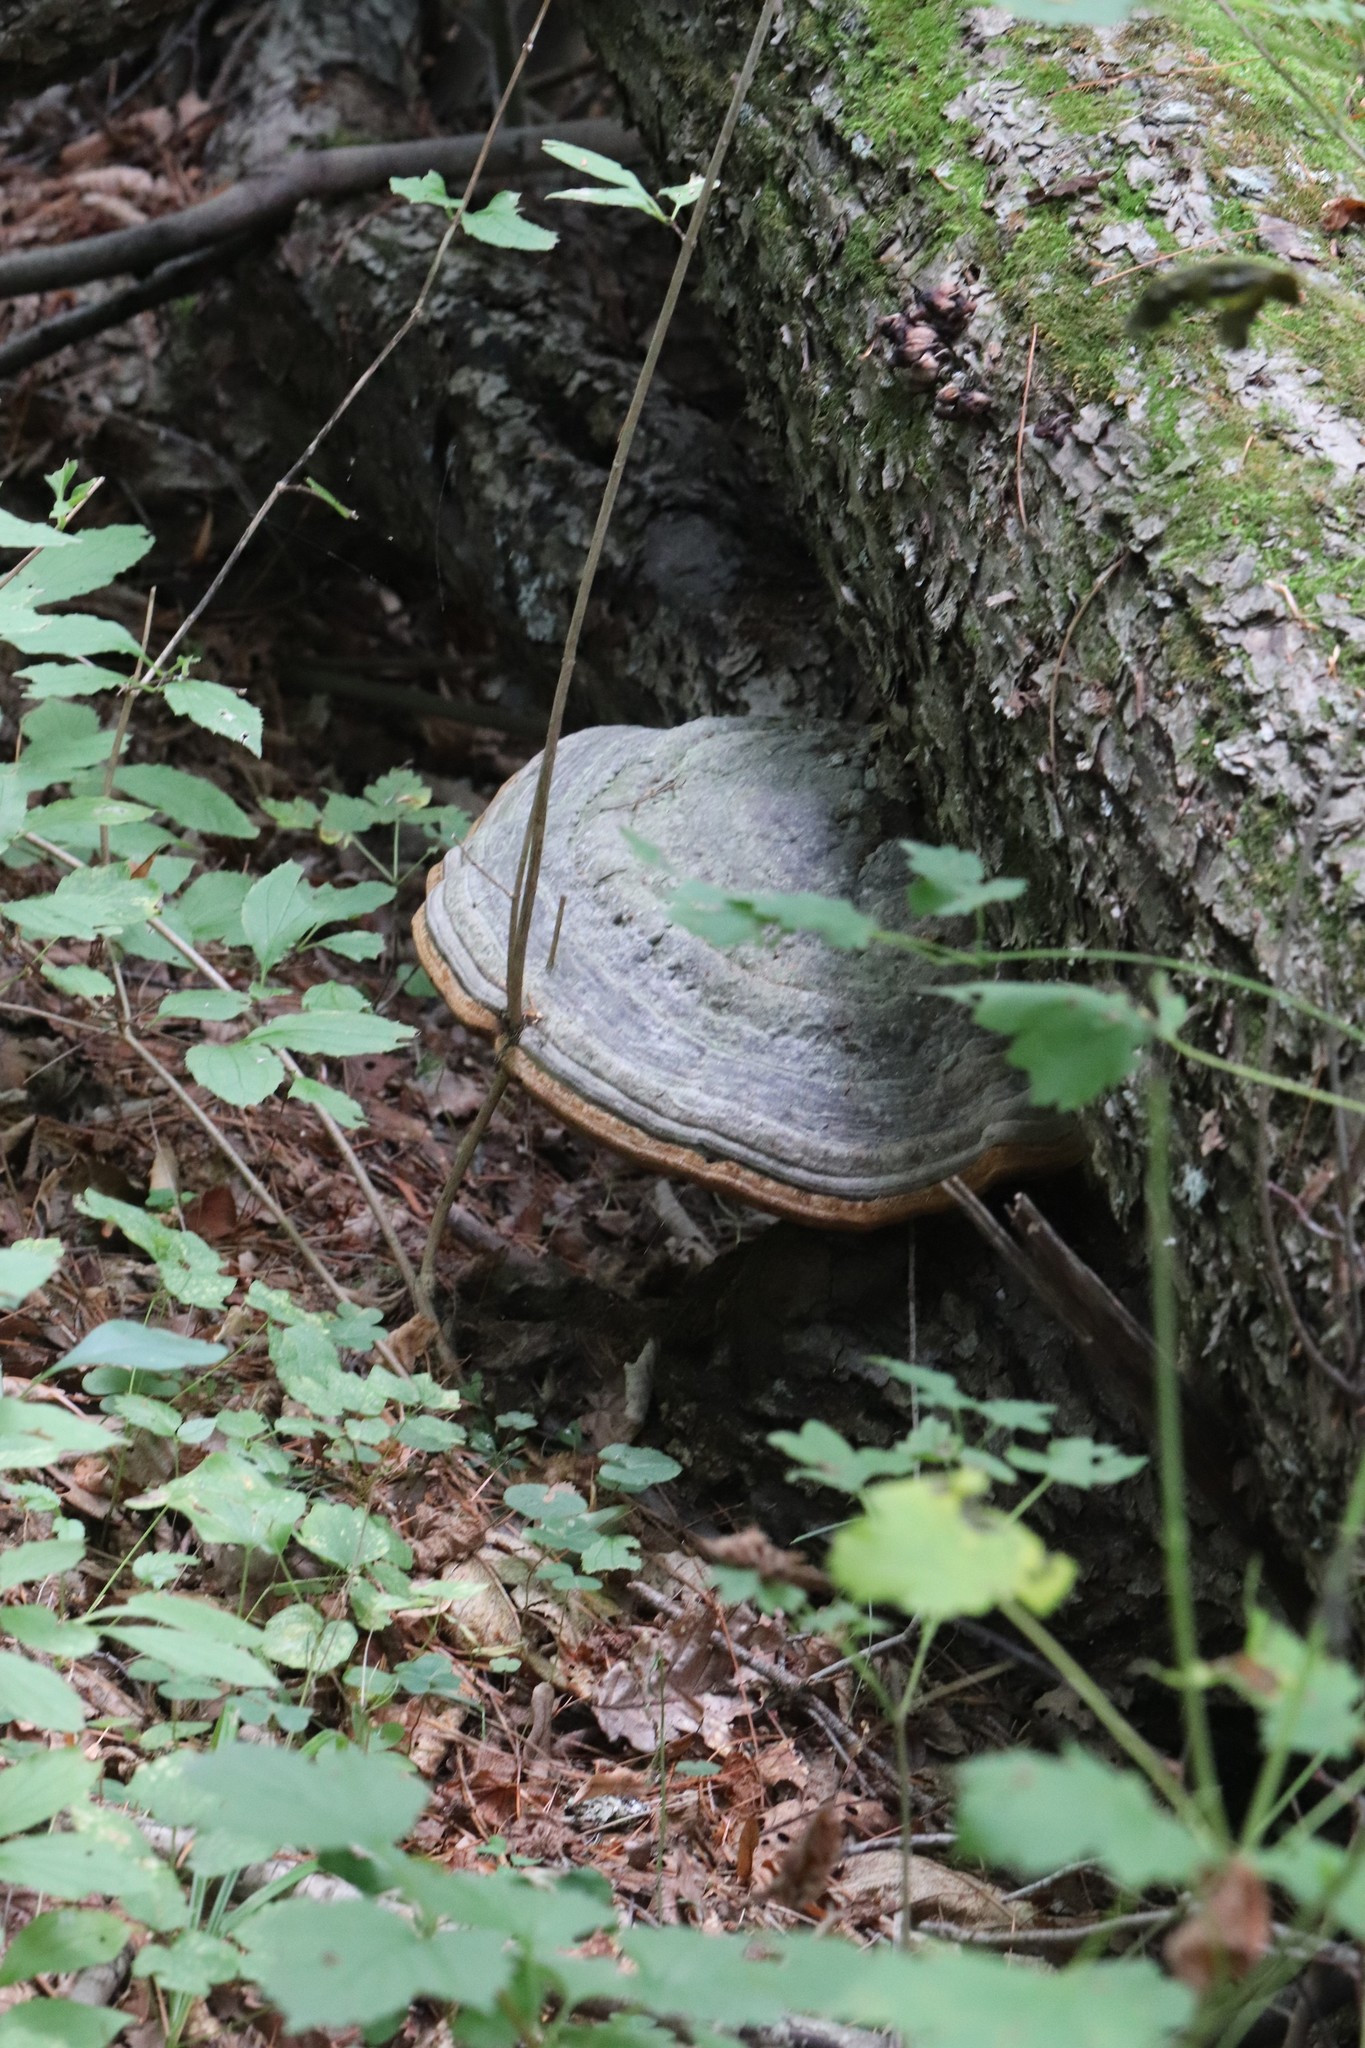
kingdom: Fungi
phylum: Basidiomycota
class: Agaricomycetes
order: Polyporales
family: Polyporaceae
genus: Fomes
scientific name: Fomes fomentarius
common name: Hoof fungus
